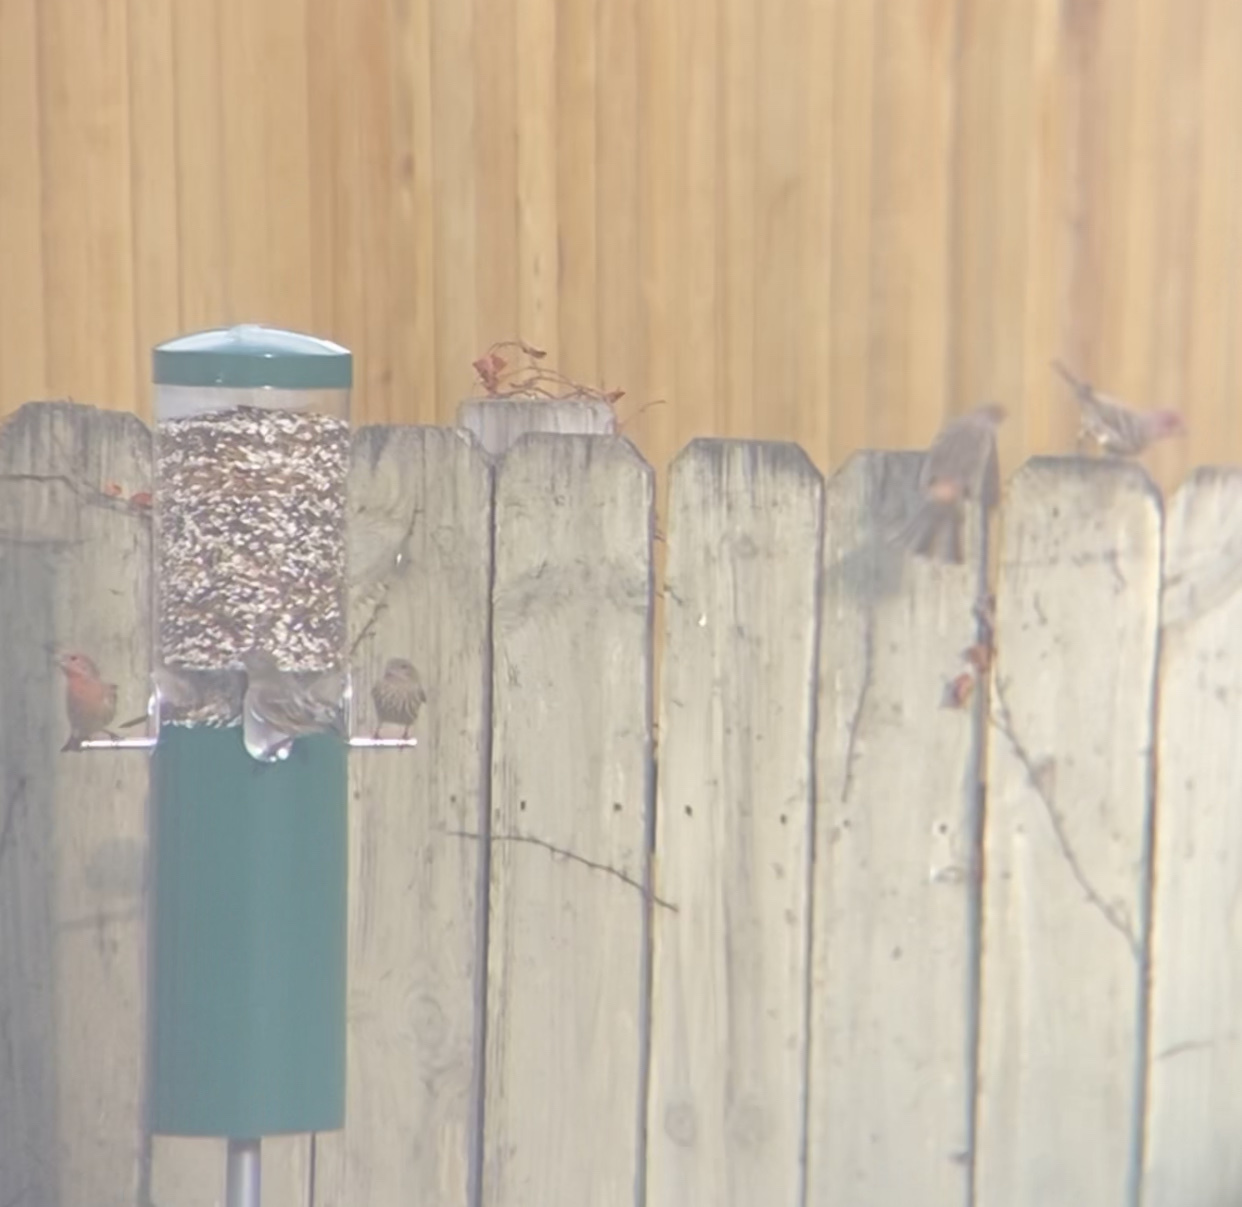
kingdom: Animalia
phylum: Chordata
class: Aves
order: Passeriformes
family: Fringillidae
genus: Haemorhous
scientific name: Haemorhous mexicanus
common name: House finch
